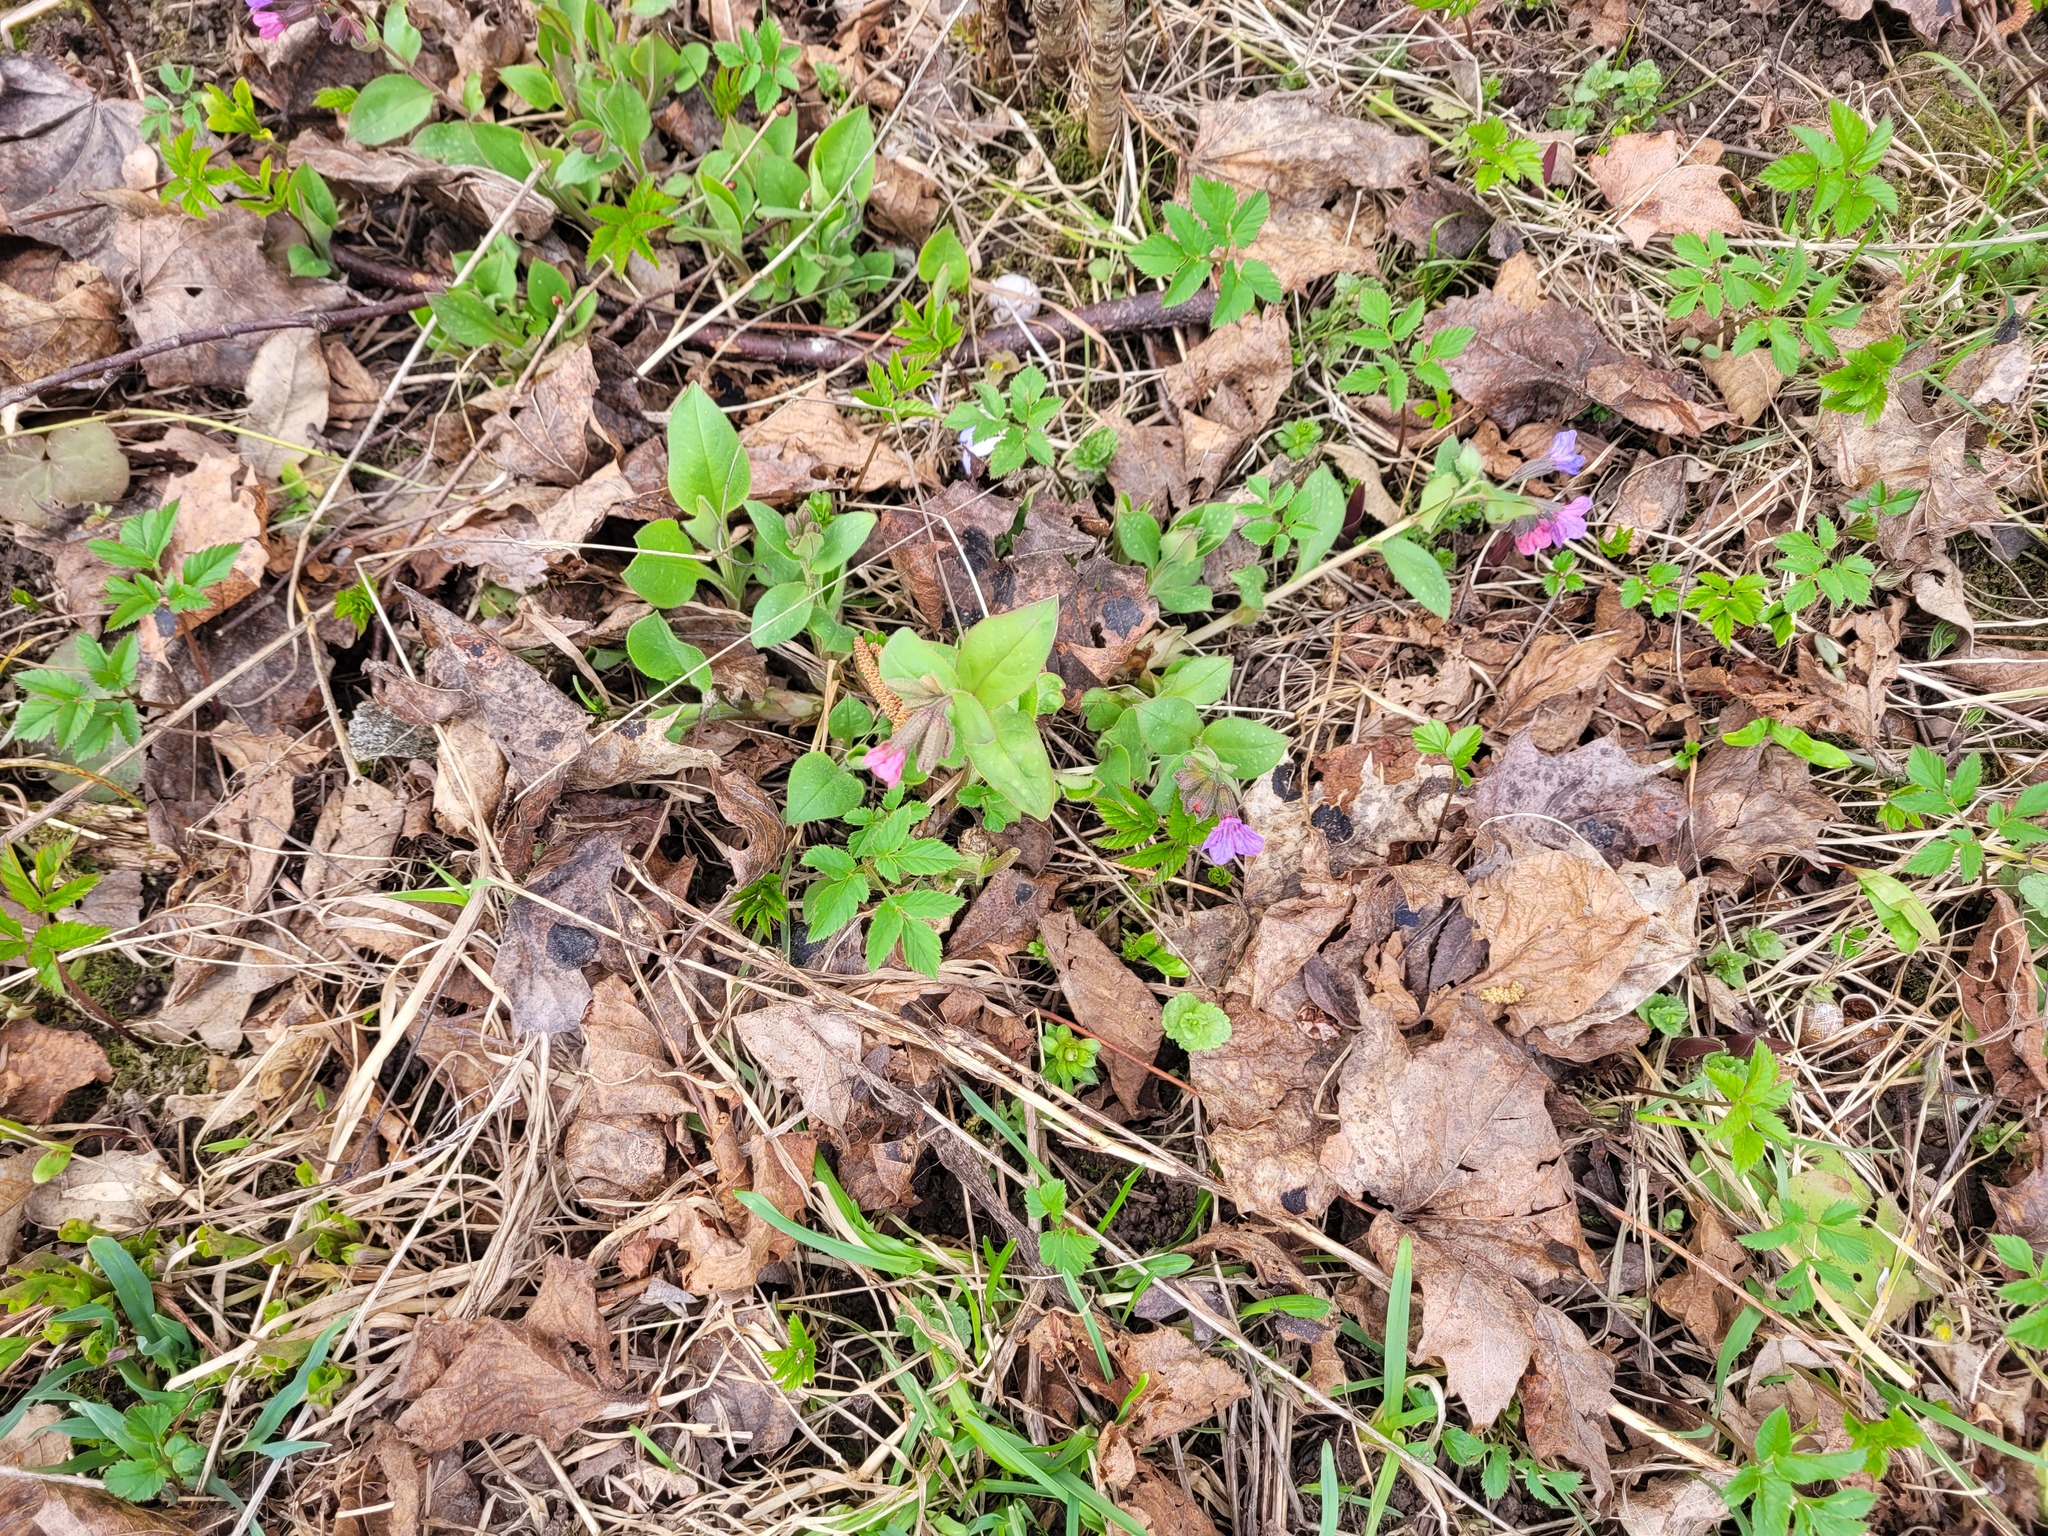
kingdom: Plantae
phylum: Tracheophyta
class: Magnoliopsida
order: Boraginales
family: Boraginaceae
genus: Pulmonaria
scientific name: Pulmonaria obscura
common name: Suffolk lungwort
